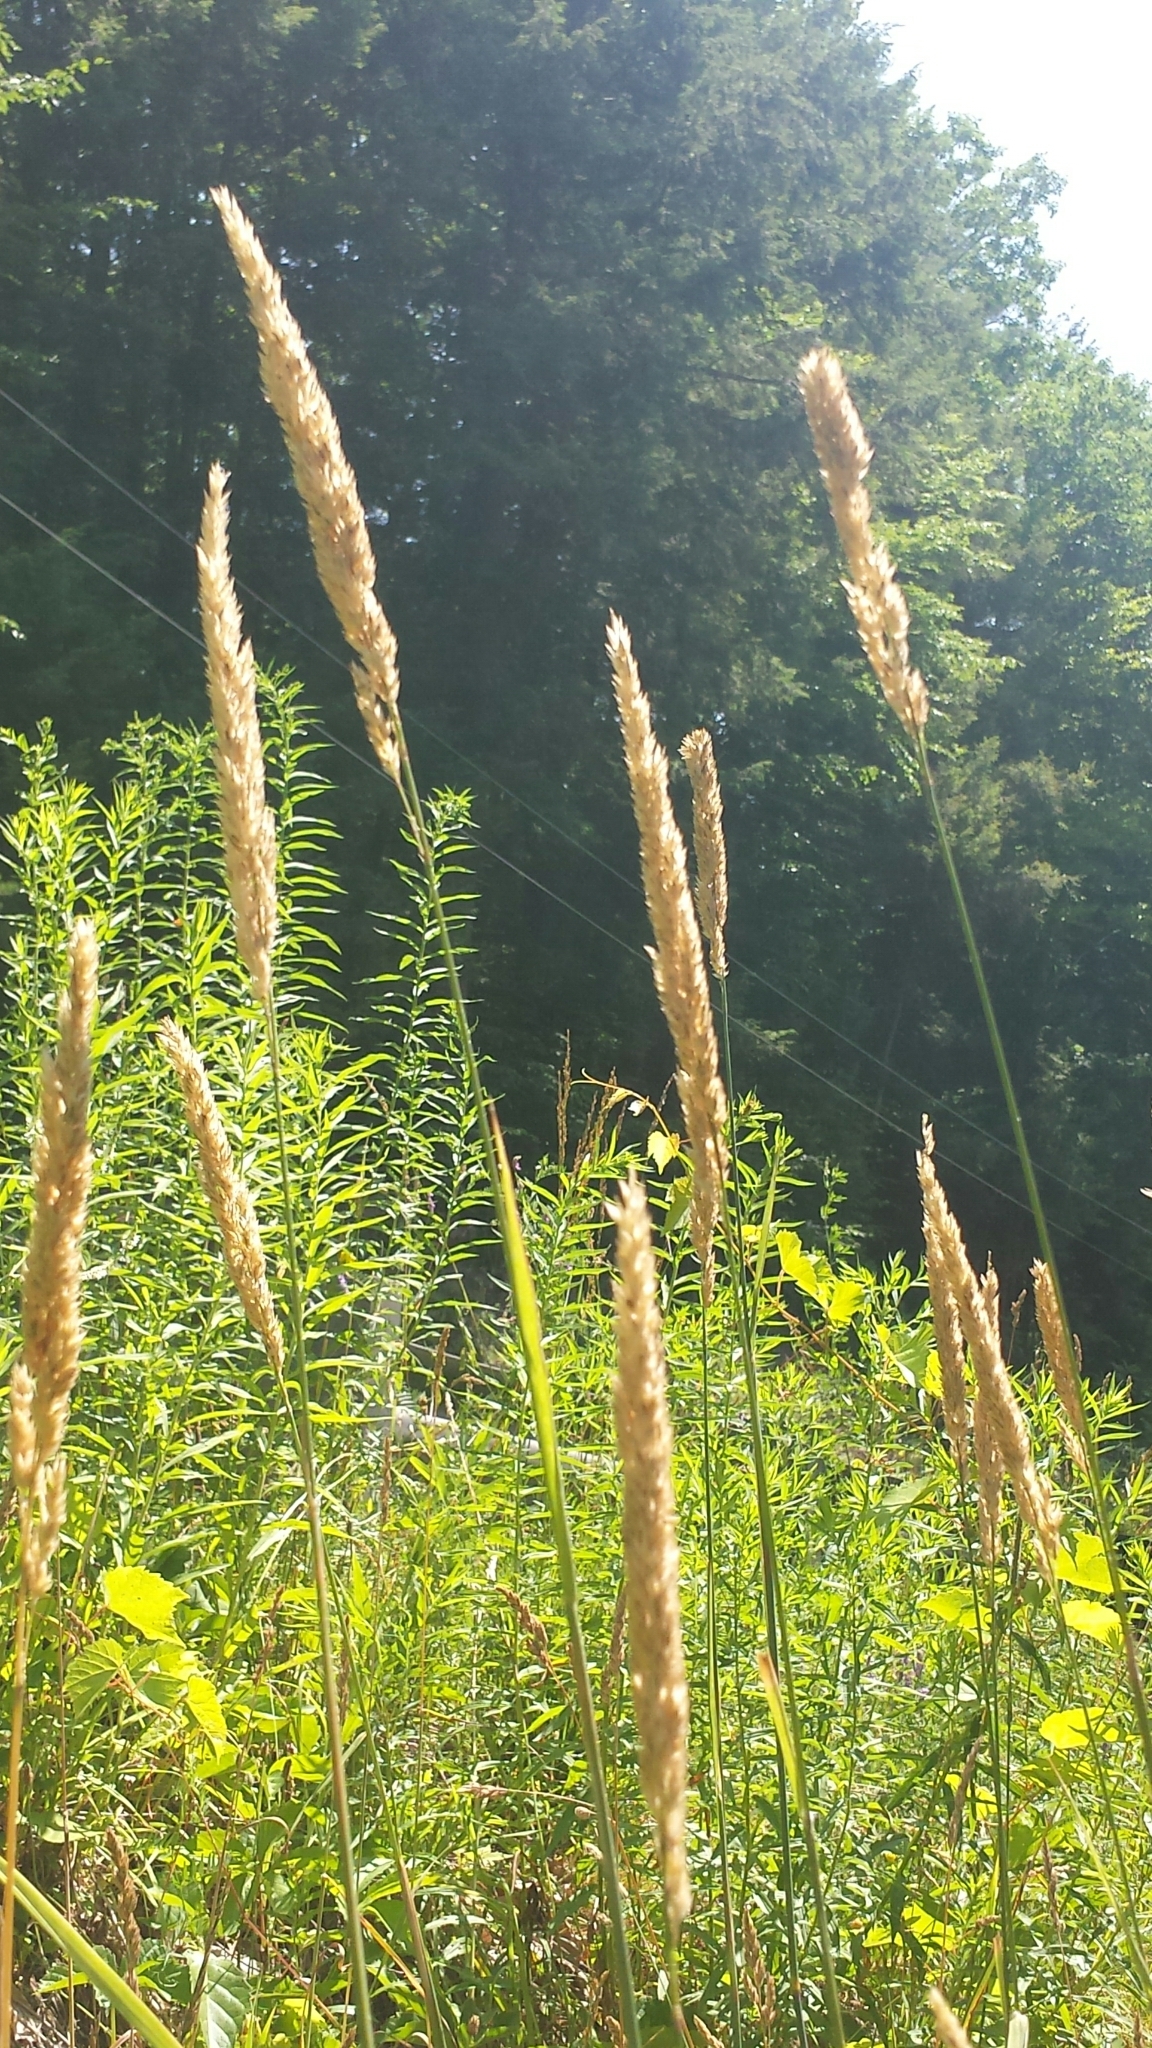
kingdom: Plantae
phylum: Tracheophyta
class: Liliopsida
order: Poales
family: Poaceae
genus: Phalaris
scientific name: Phalaris arundinacea
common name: Reed canary-grass
